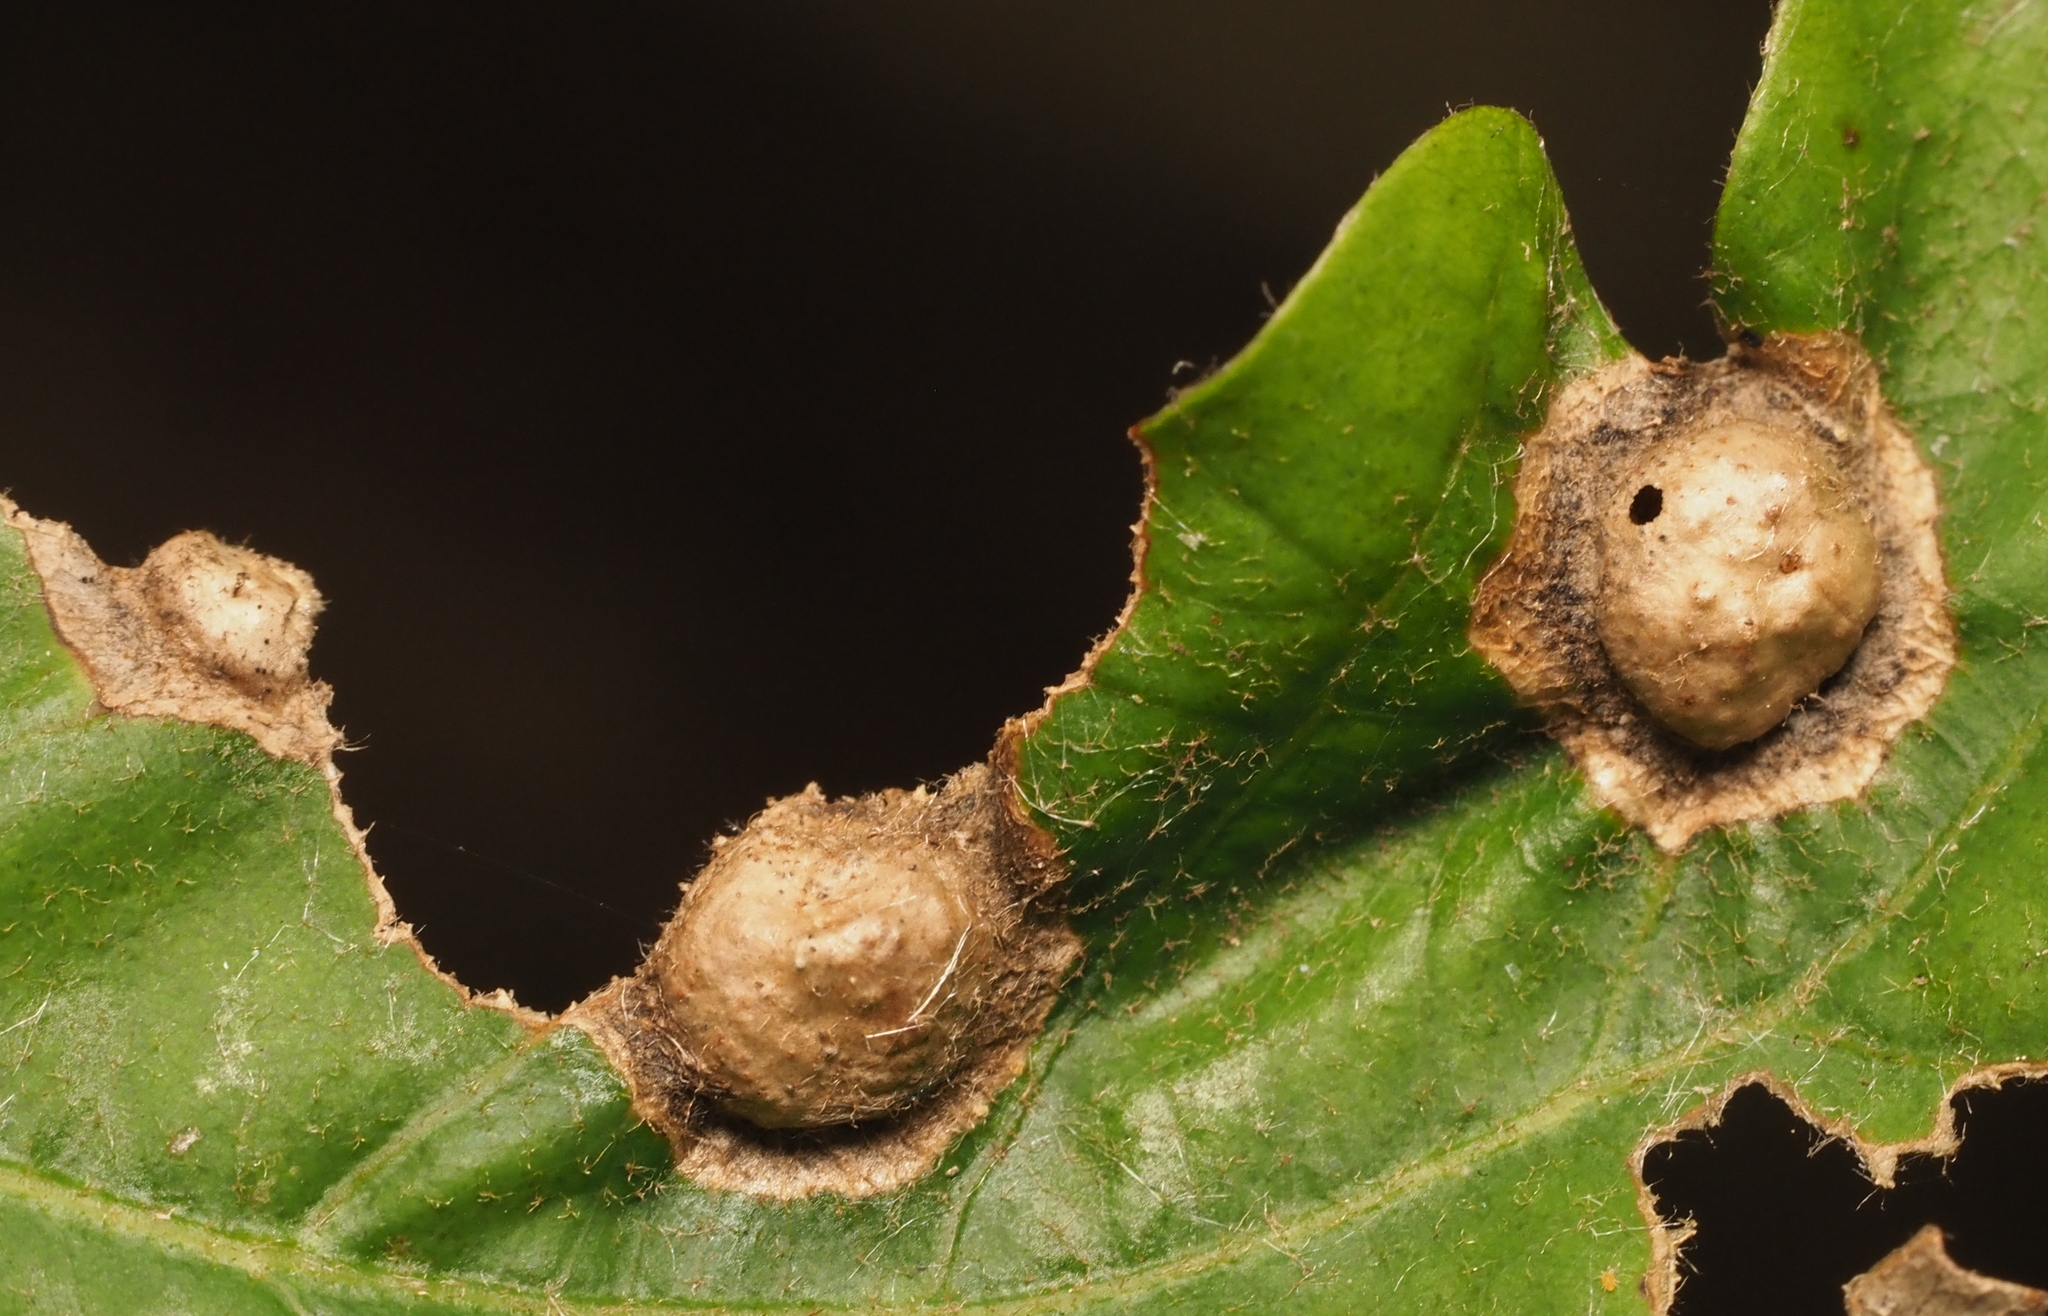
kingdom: Animalia
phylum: Arthropoda
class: Insecta
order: Hymenoptera
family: Cynipidae
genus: Callirhytis
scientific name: Callirhytis
